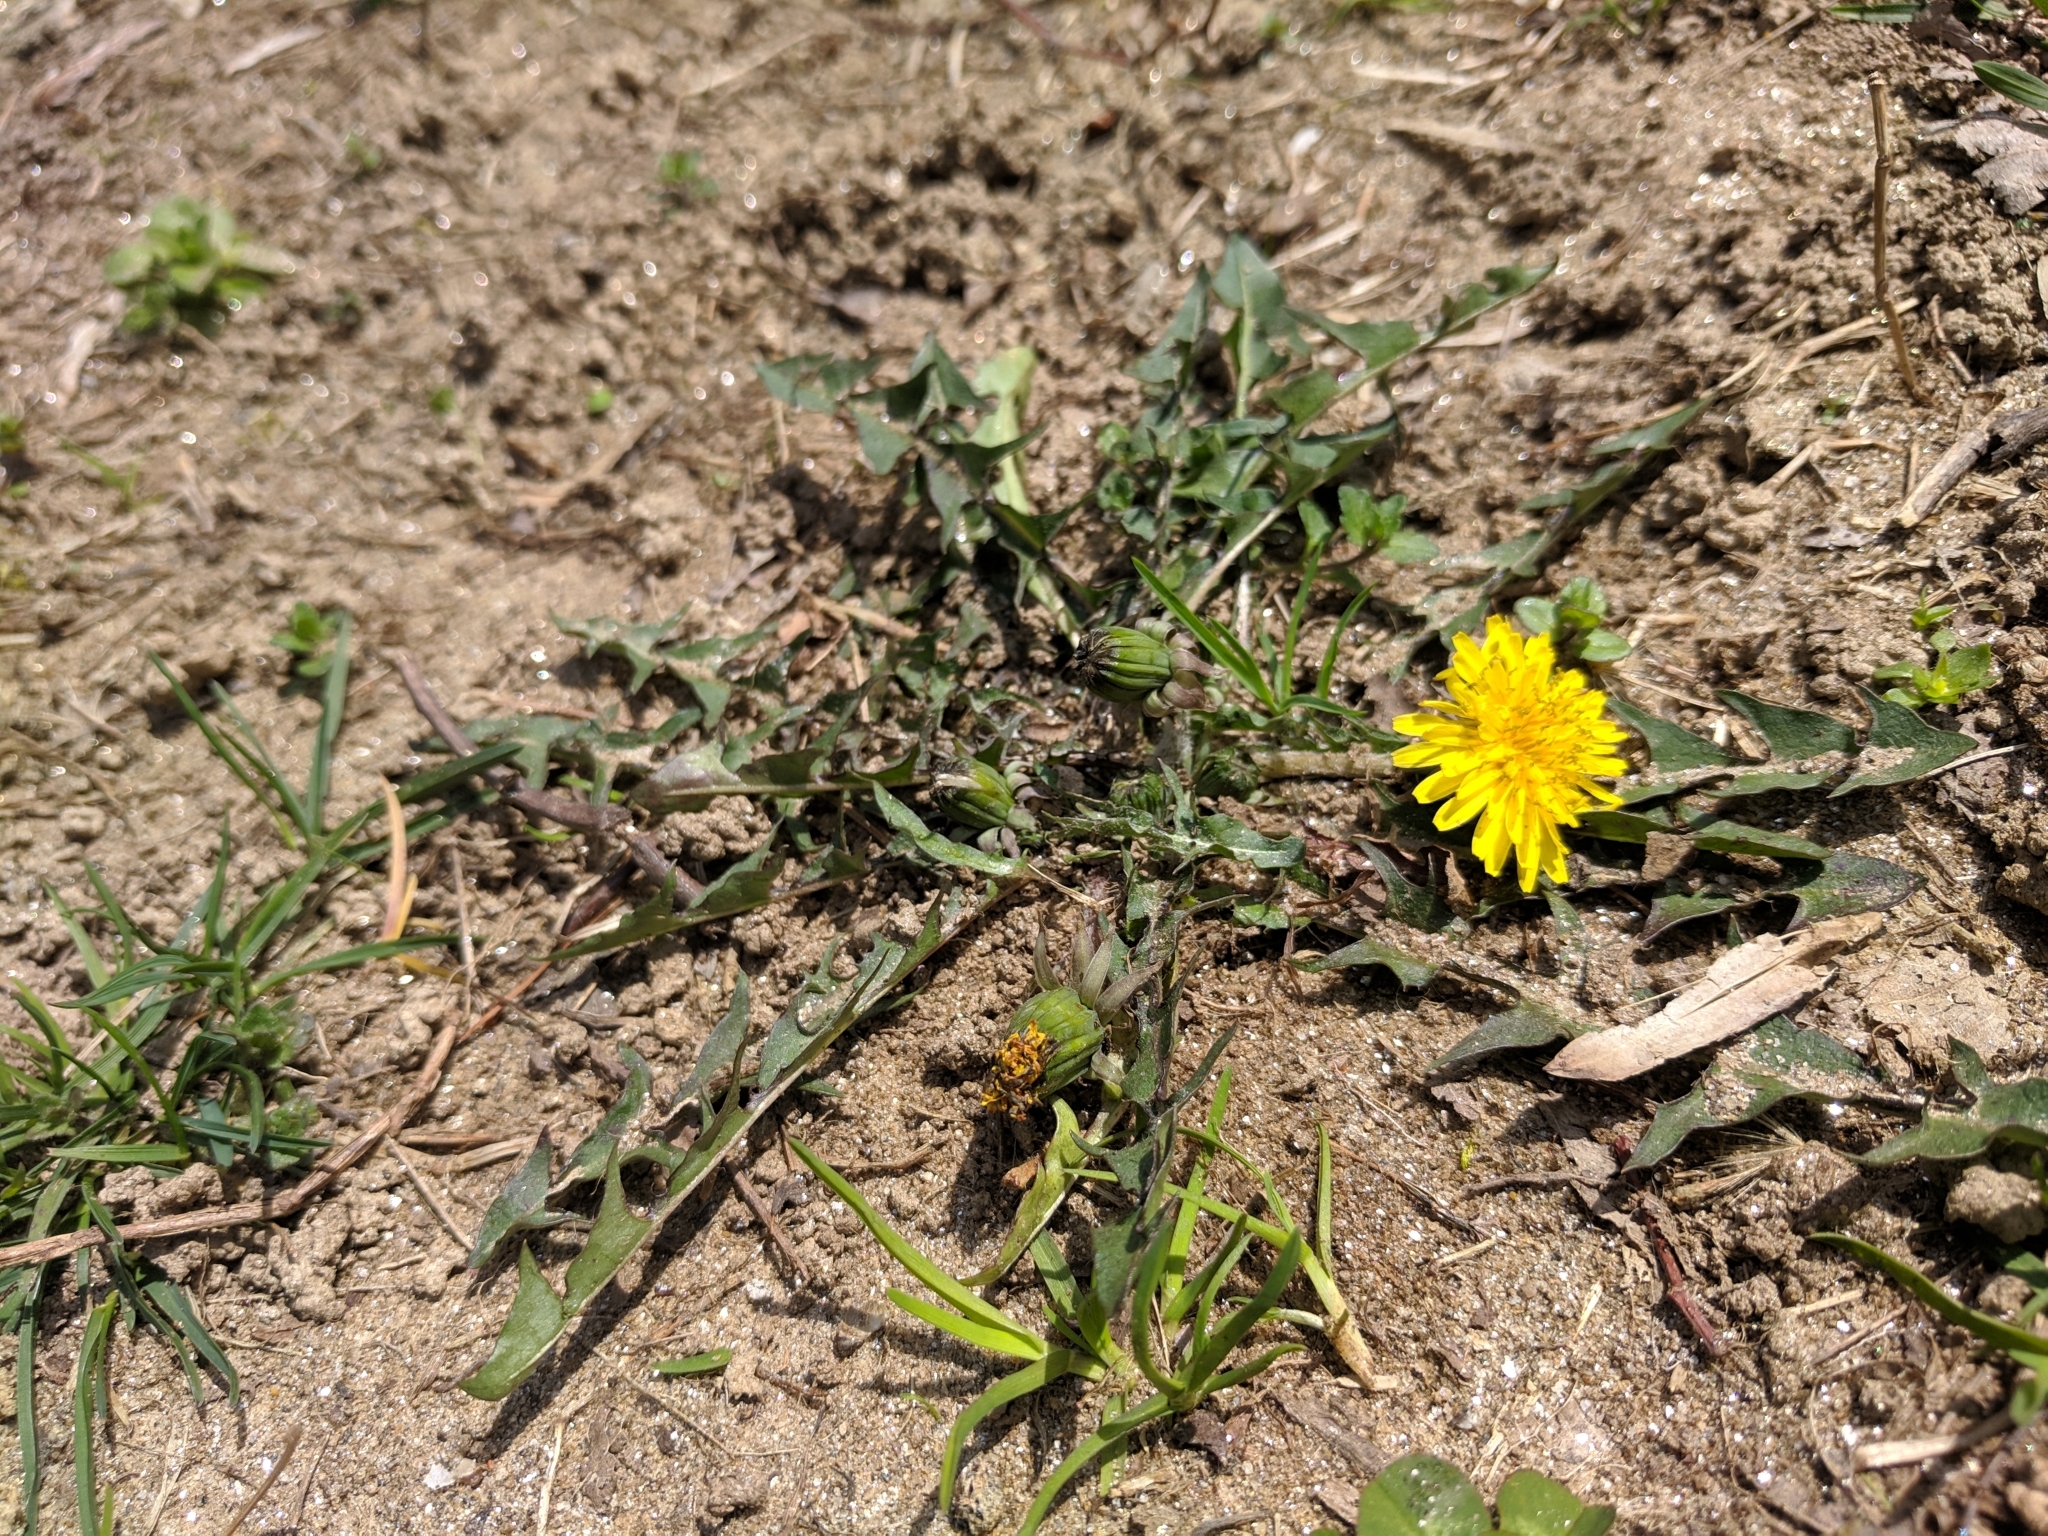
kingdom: Plantae
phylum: Tracheophyta
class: Magnoliopsida
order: Asterales
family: Asteraceae
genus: Taraxacum
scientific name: Taraxacum officinale
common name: Common dandelion
